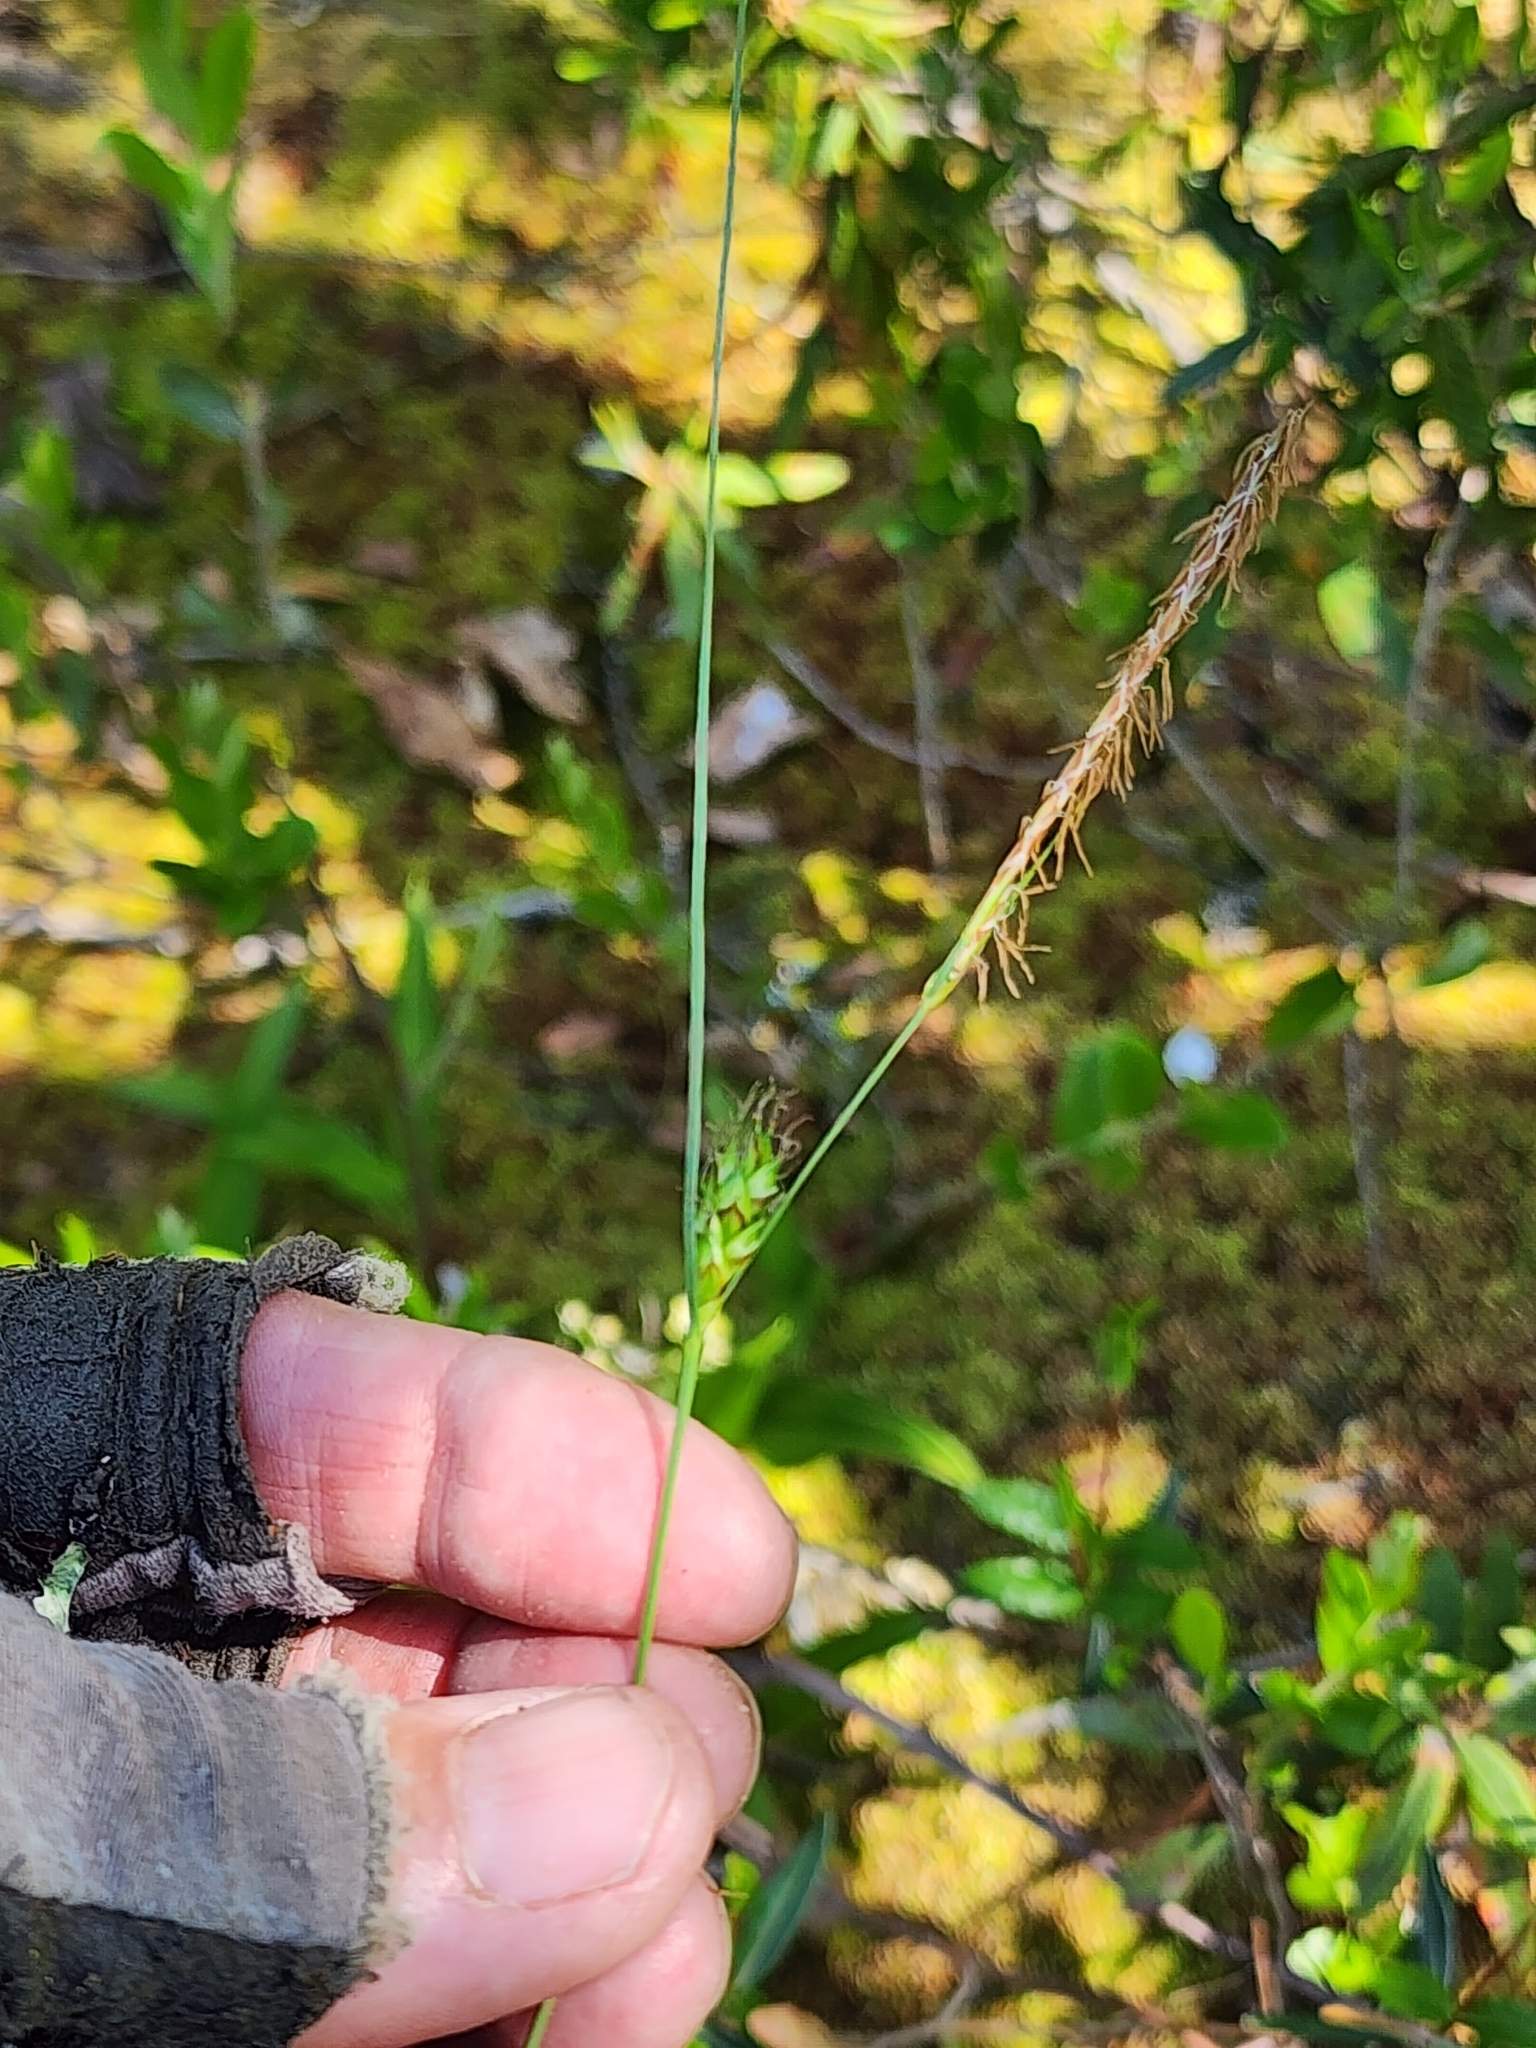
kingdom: Plantae
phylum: Tracheophyta
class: Liliopsida
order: Poales
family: Cyperaceae
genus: Carex
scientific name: Carex oligosperma
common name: Few-seed sedge
